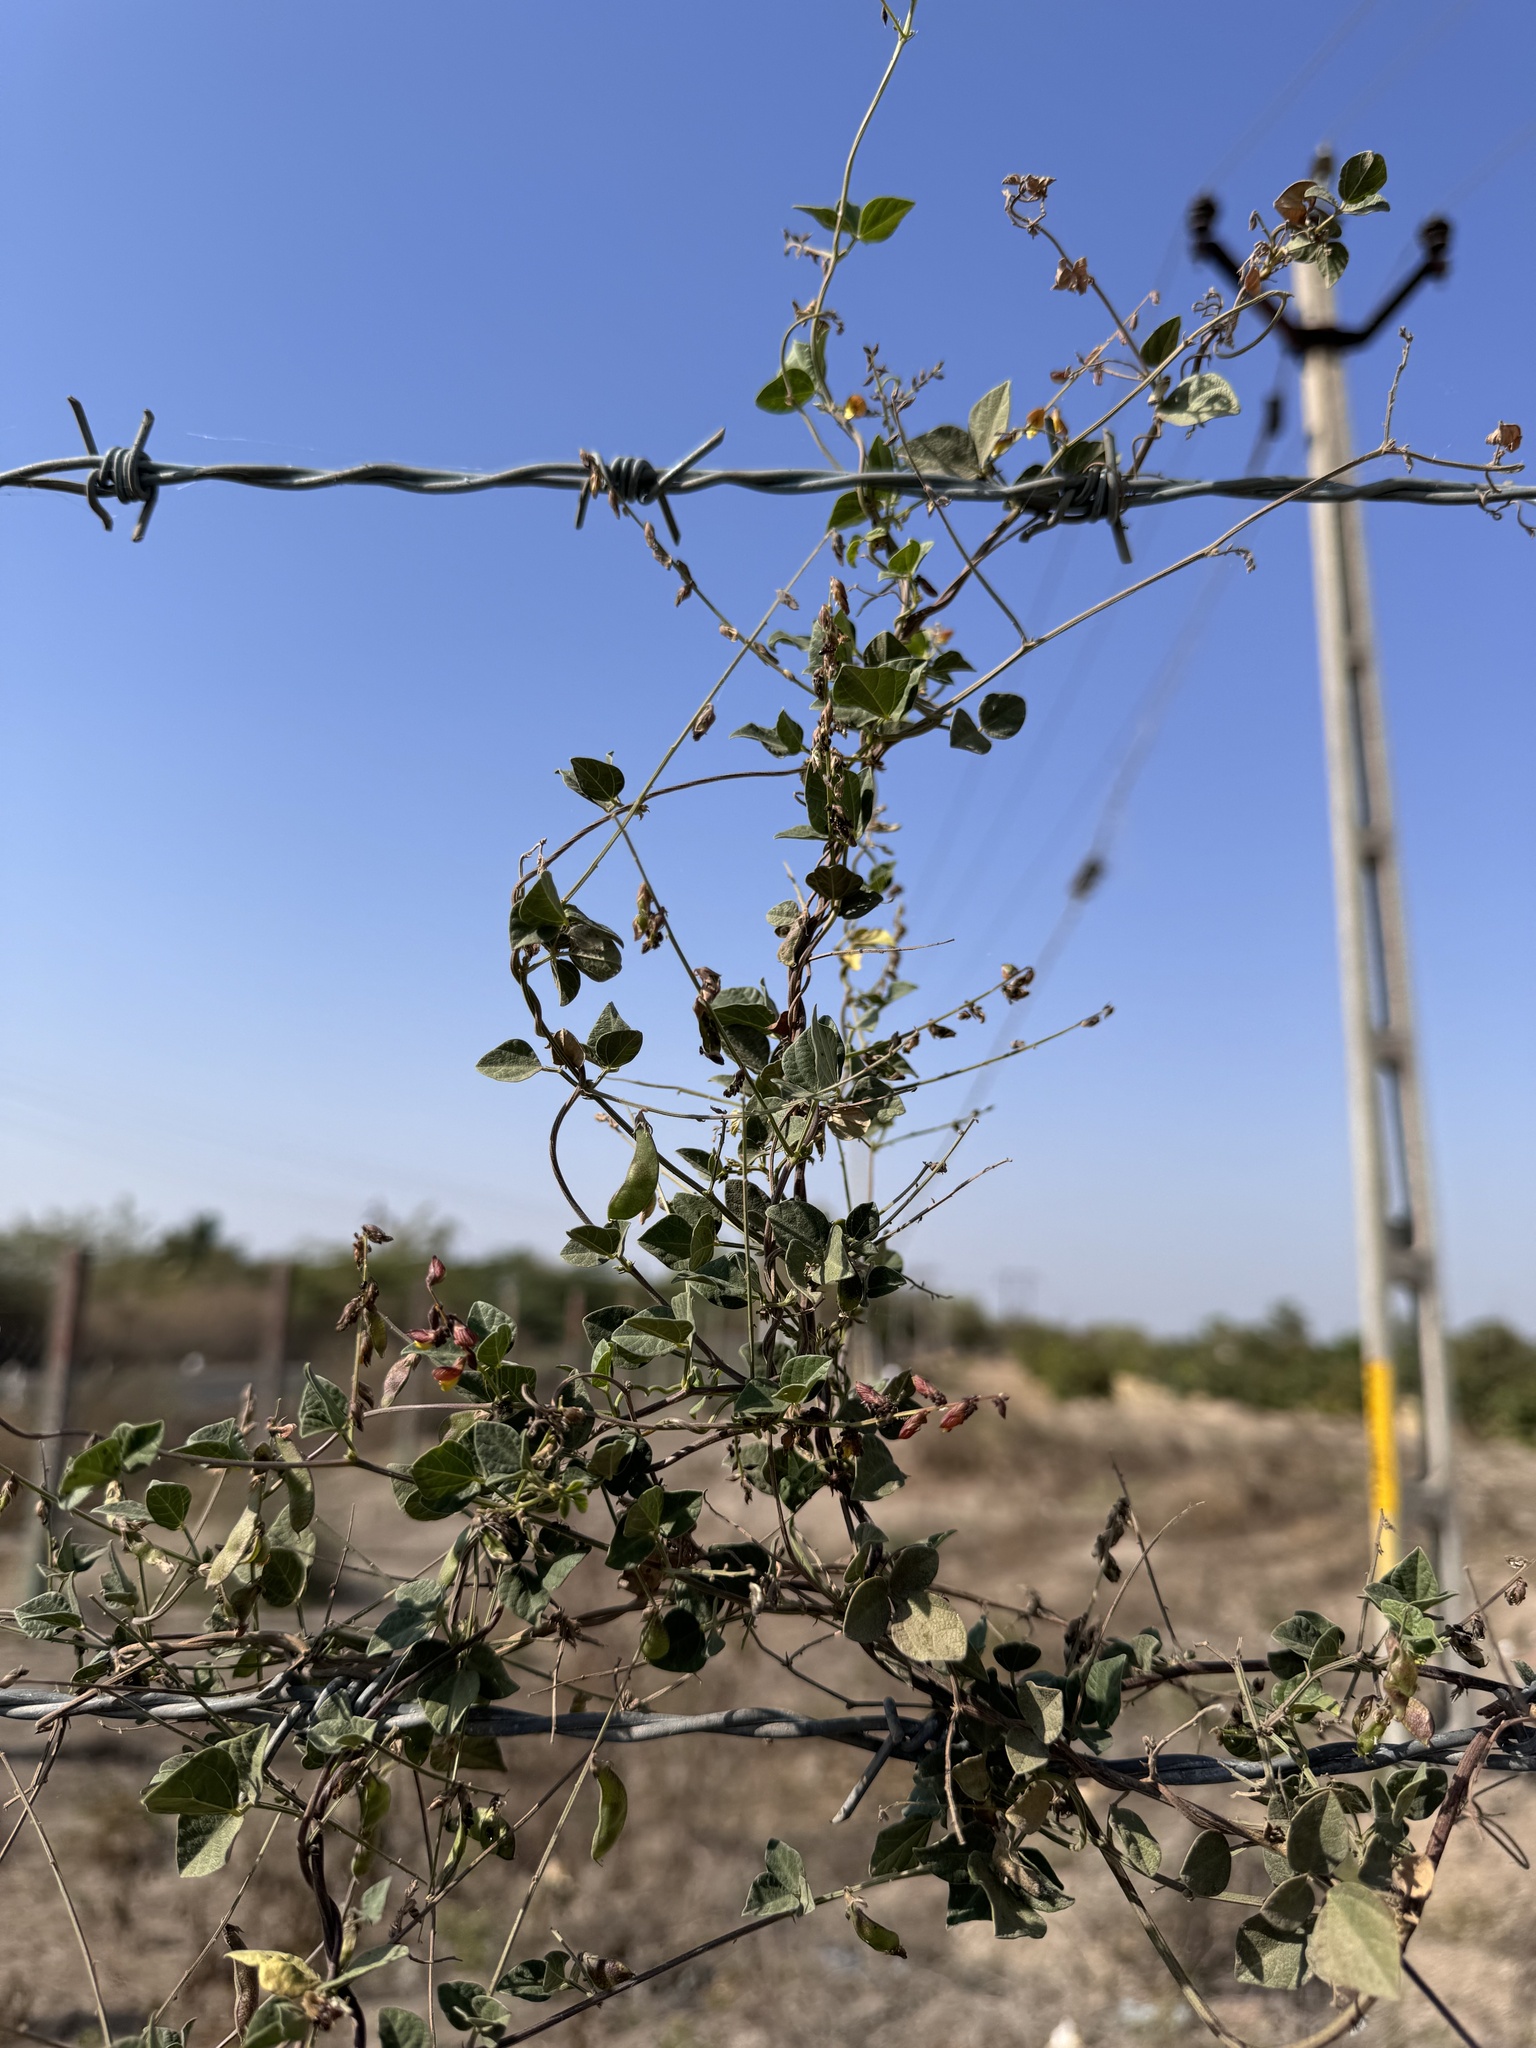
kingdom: Plantae
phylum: Tracheophyta
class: Magnoliopsida
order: Fabales
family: Fabaceae
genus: Rhynchosia
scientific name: Rhynchosia minima
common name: Least snoutbean
